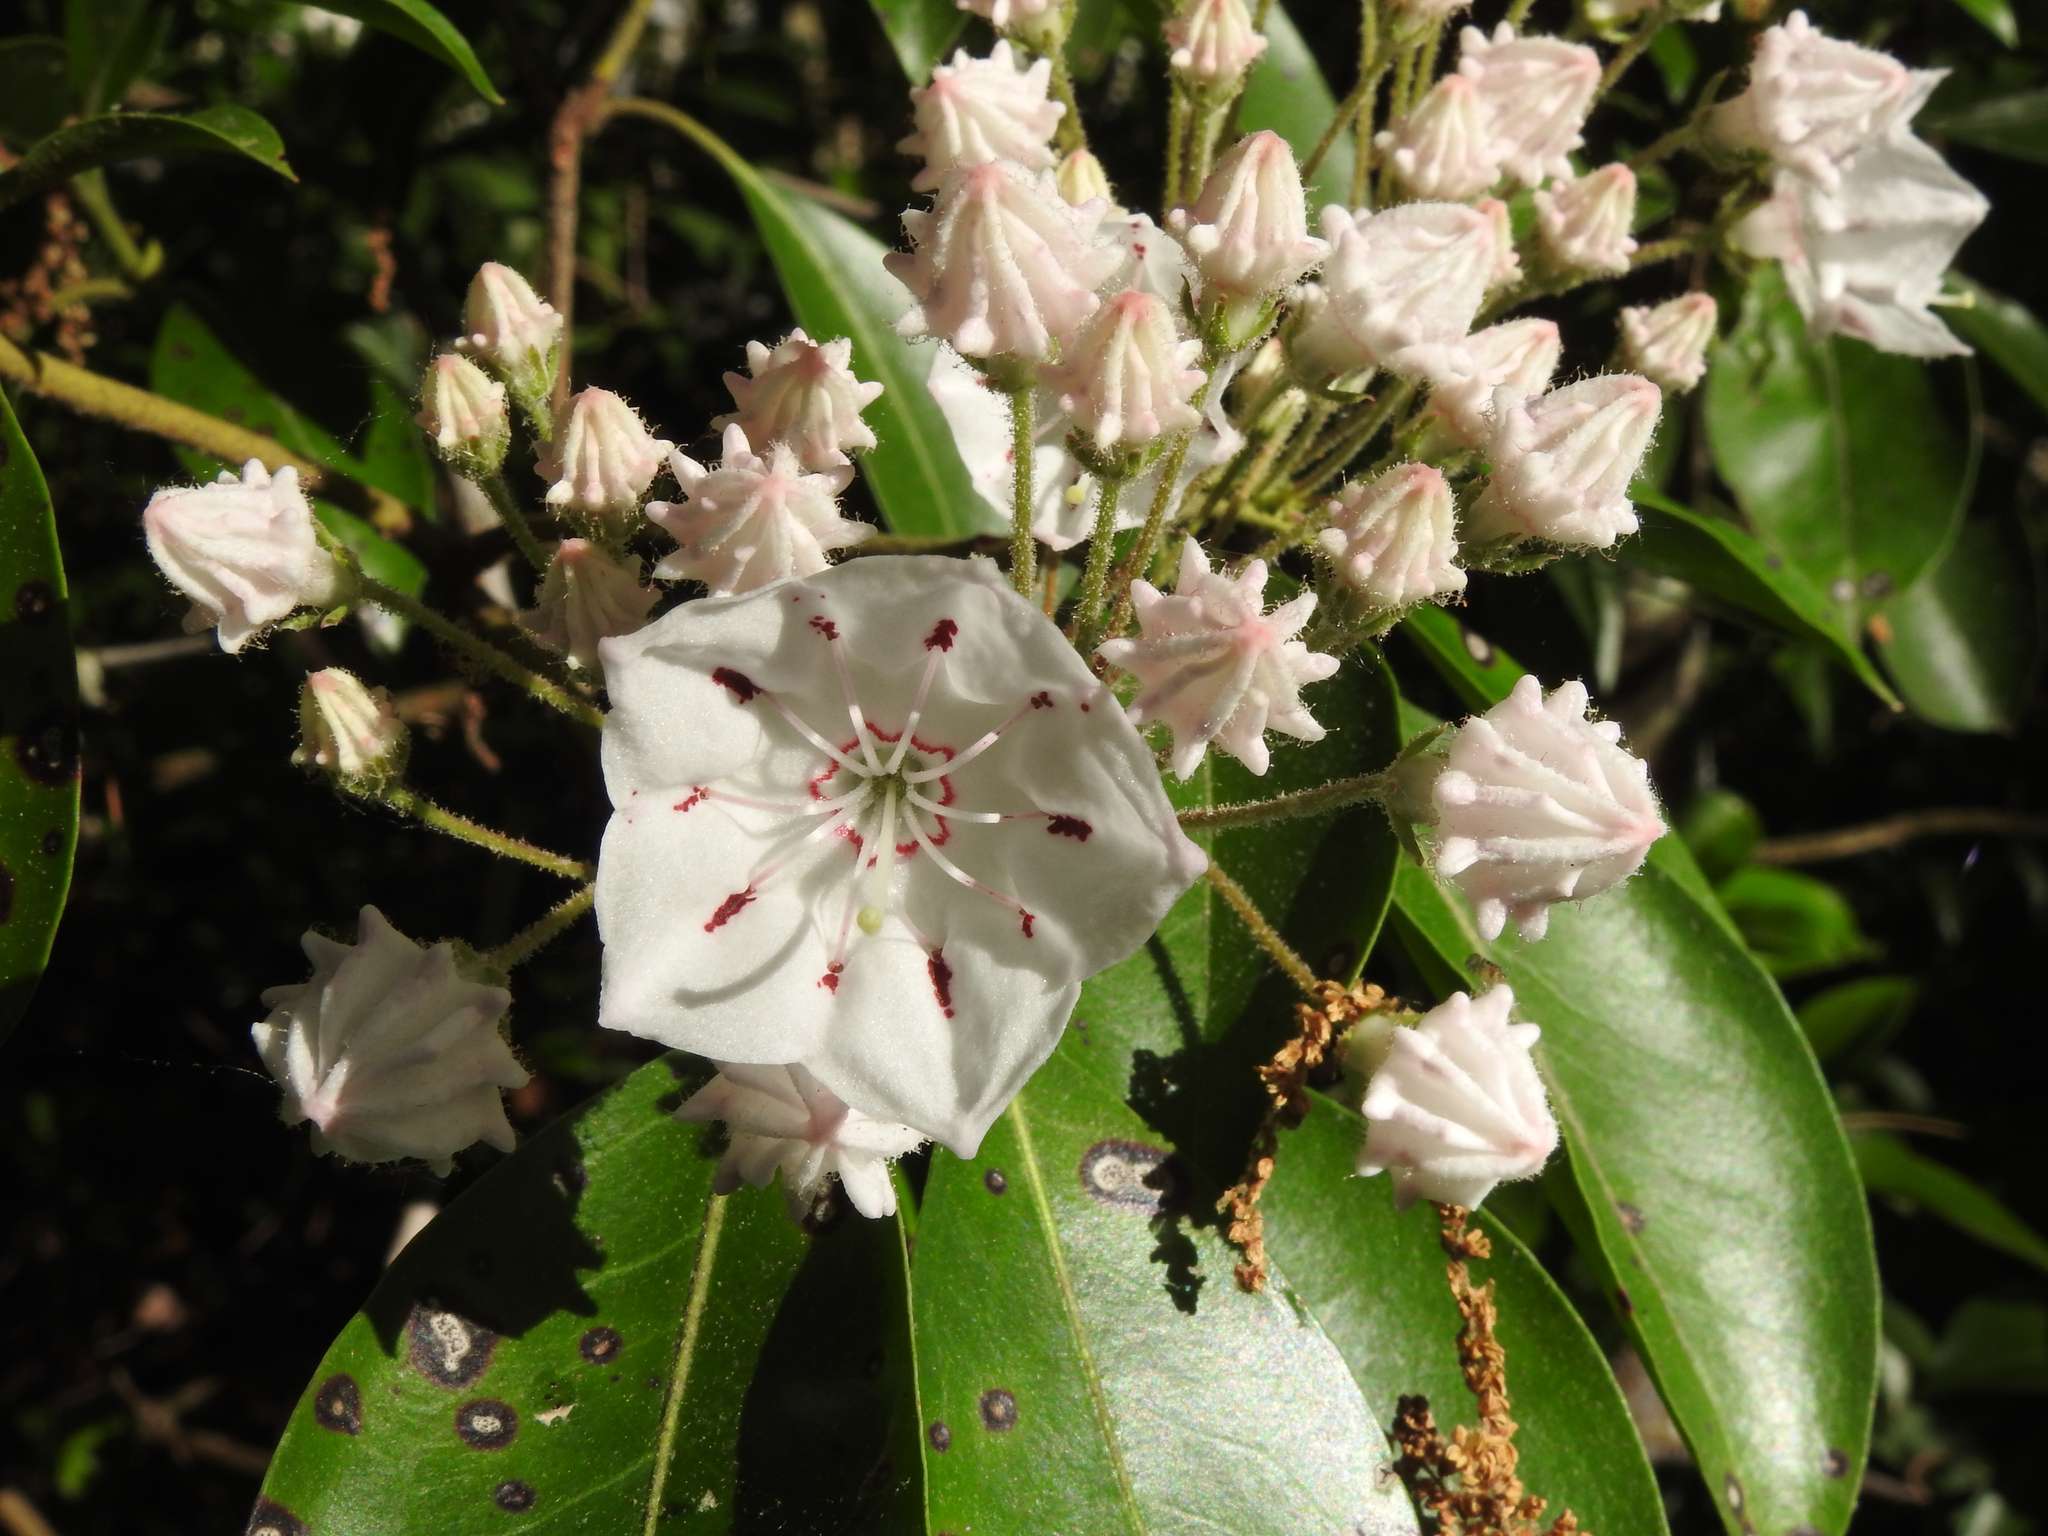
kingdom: Plantae
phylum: Tracheophyta
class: Magnoliopsida
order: Ericales
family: Ericaceae
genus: Kalmia
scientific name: Kalmia latifolia
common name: Mountain-laurel
